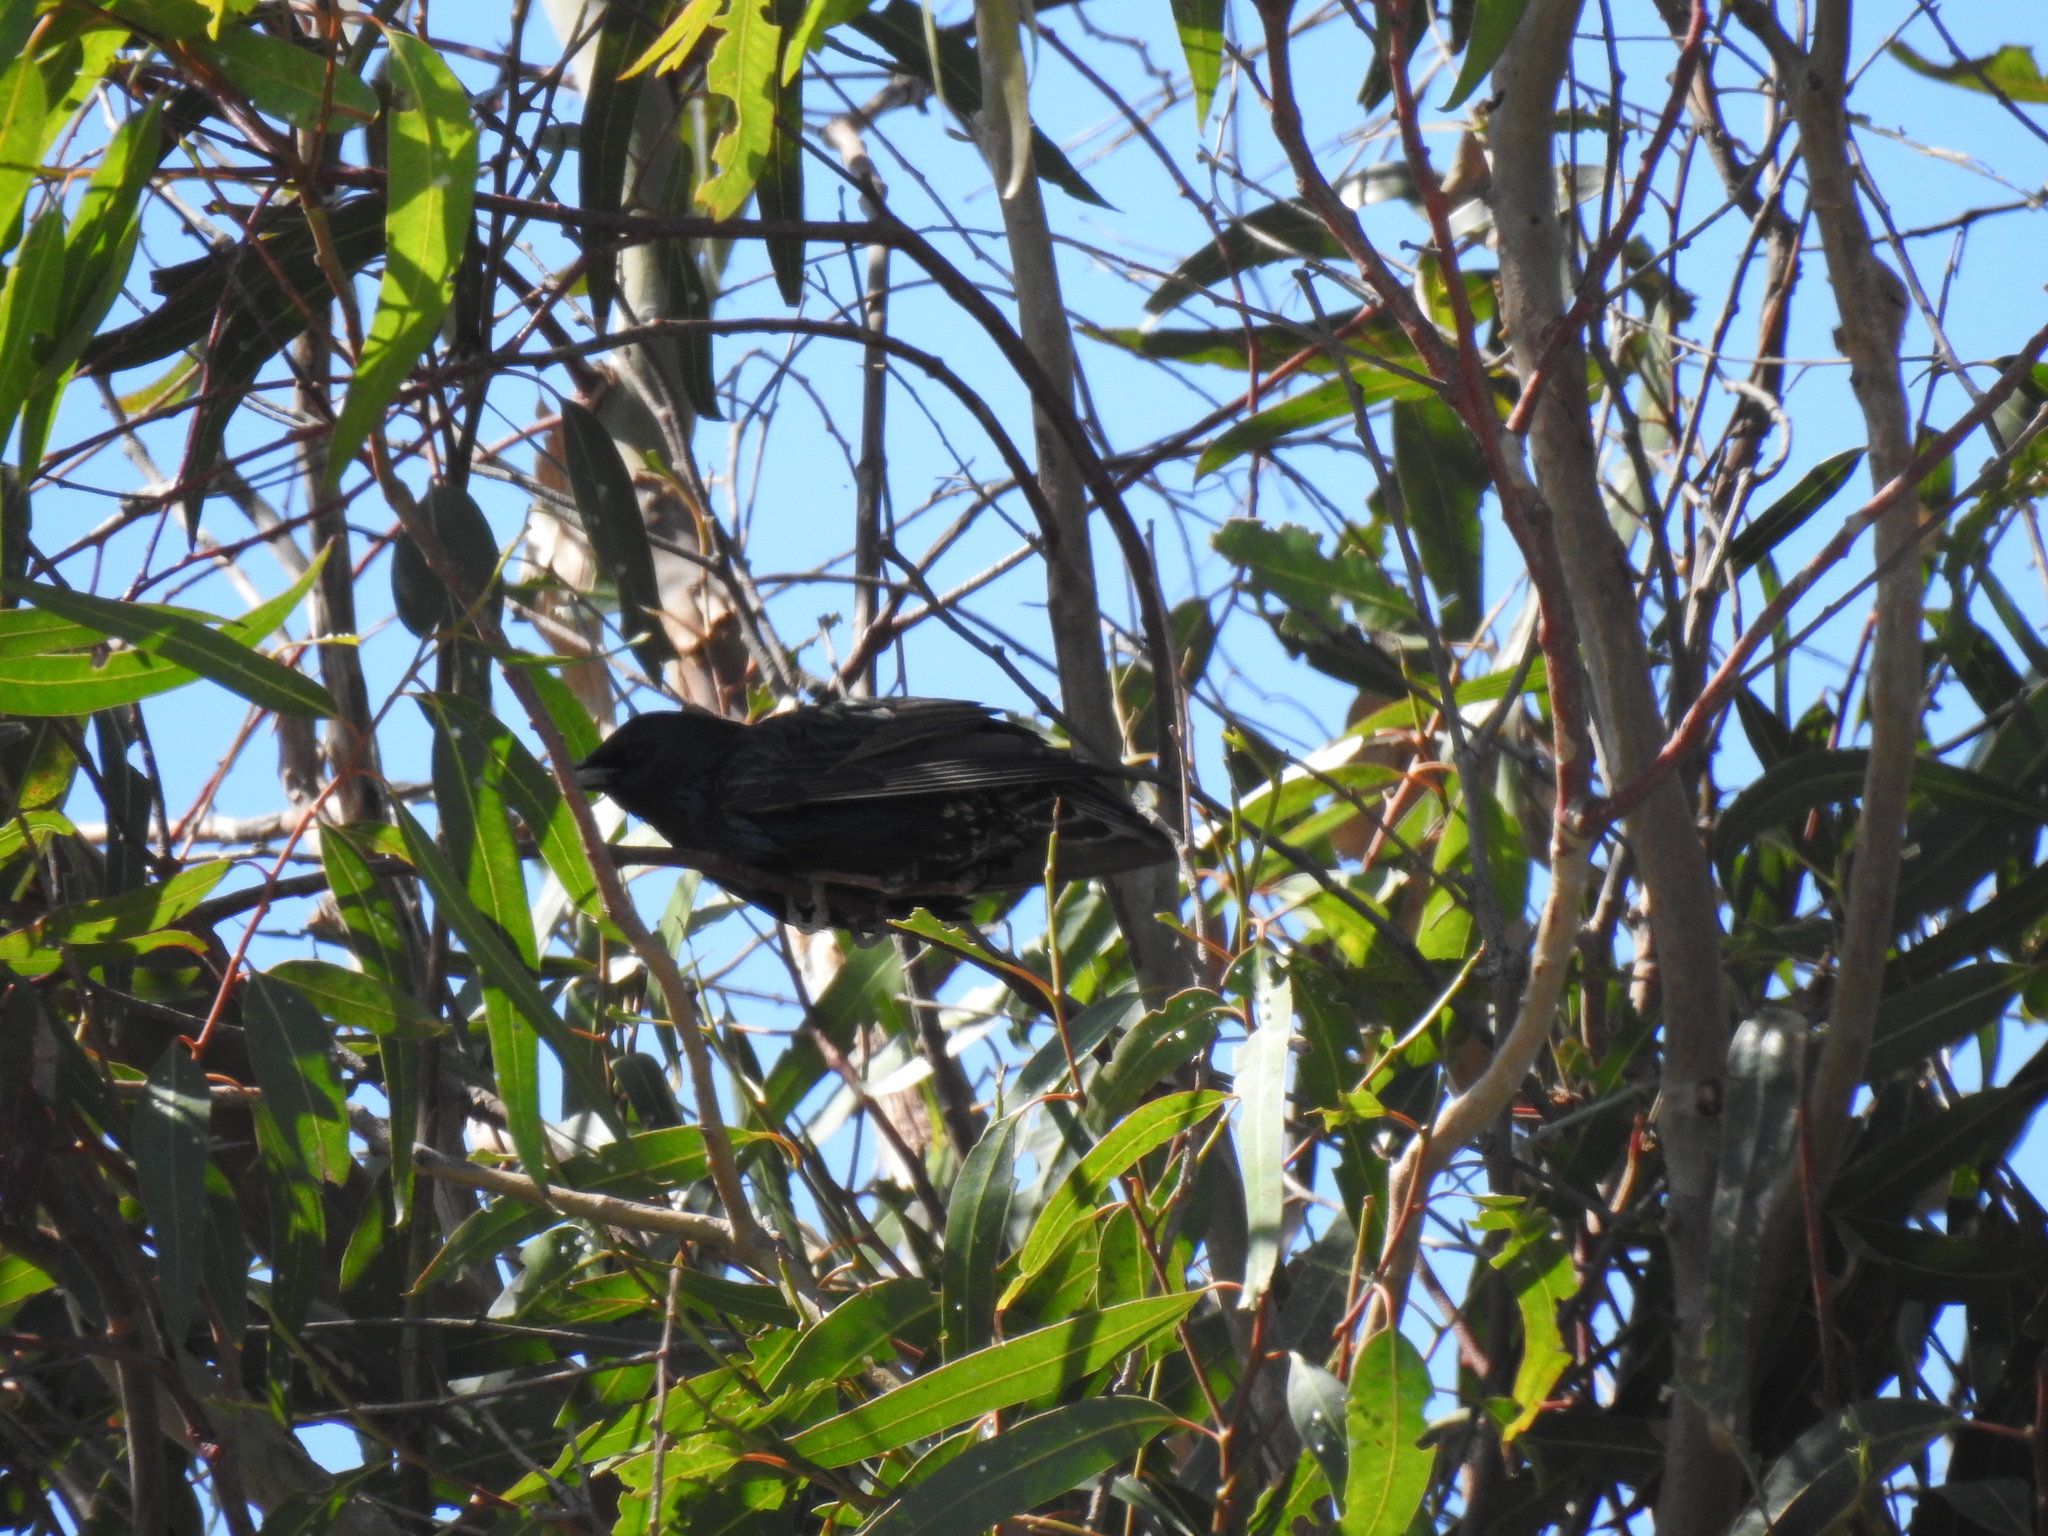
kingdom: Animalia
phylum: Chordata
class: Aves
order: Passeriformes
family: Sturnidae
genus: Sturnus
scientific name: Sturnus vulgaris
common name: Common starling
